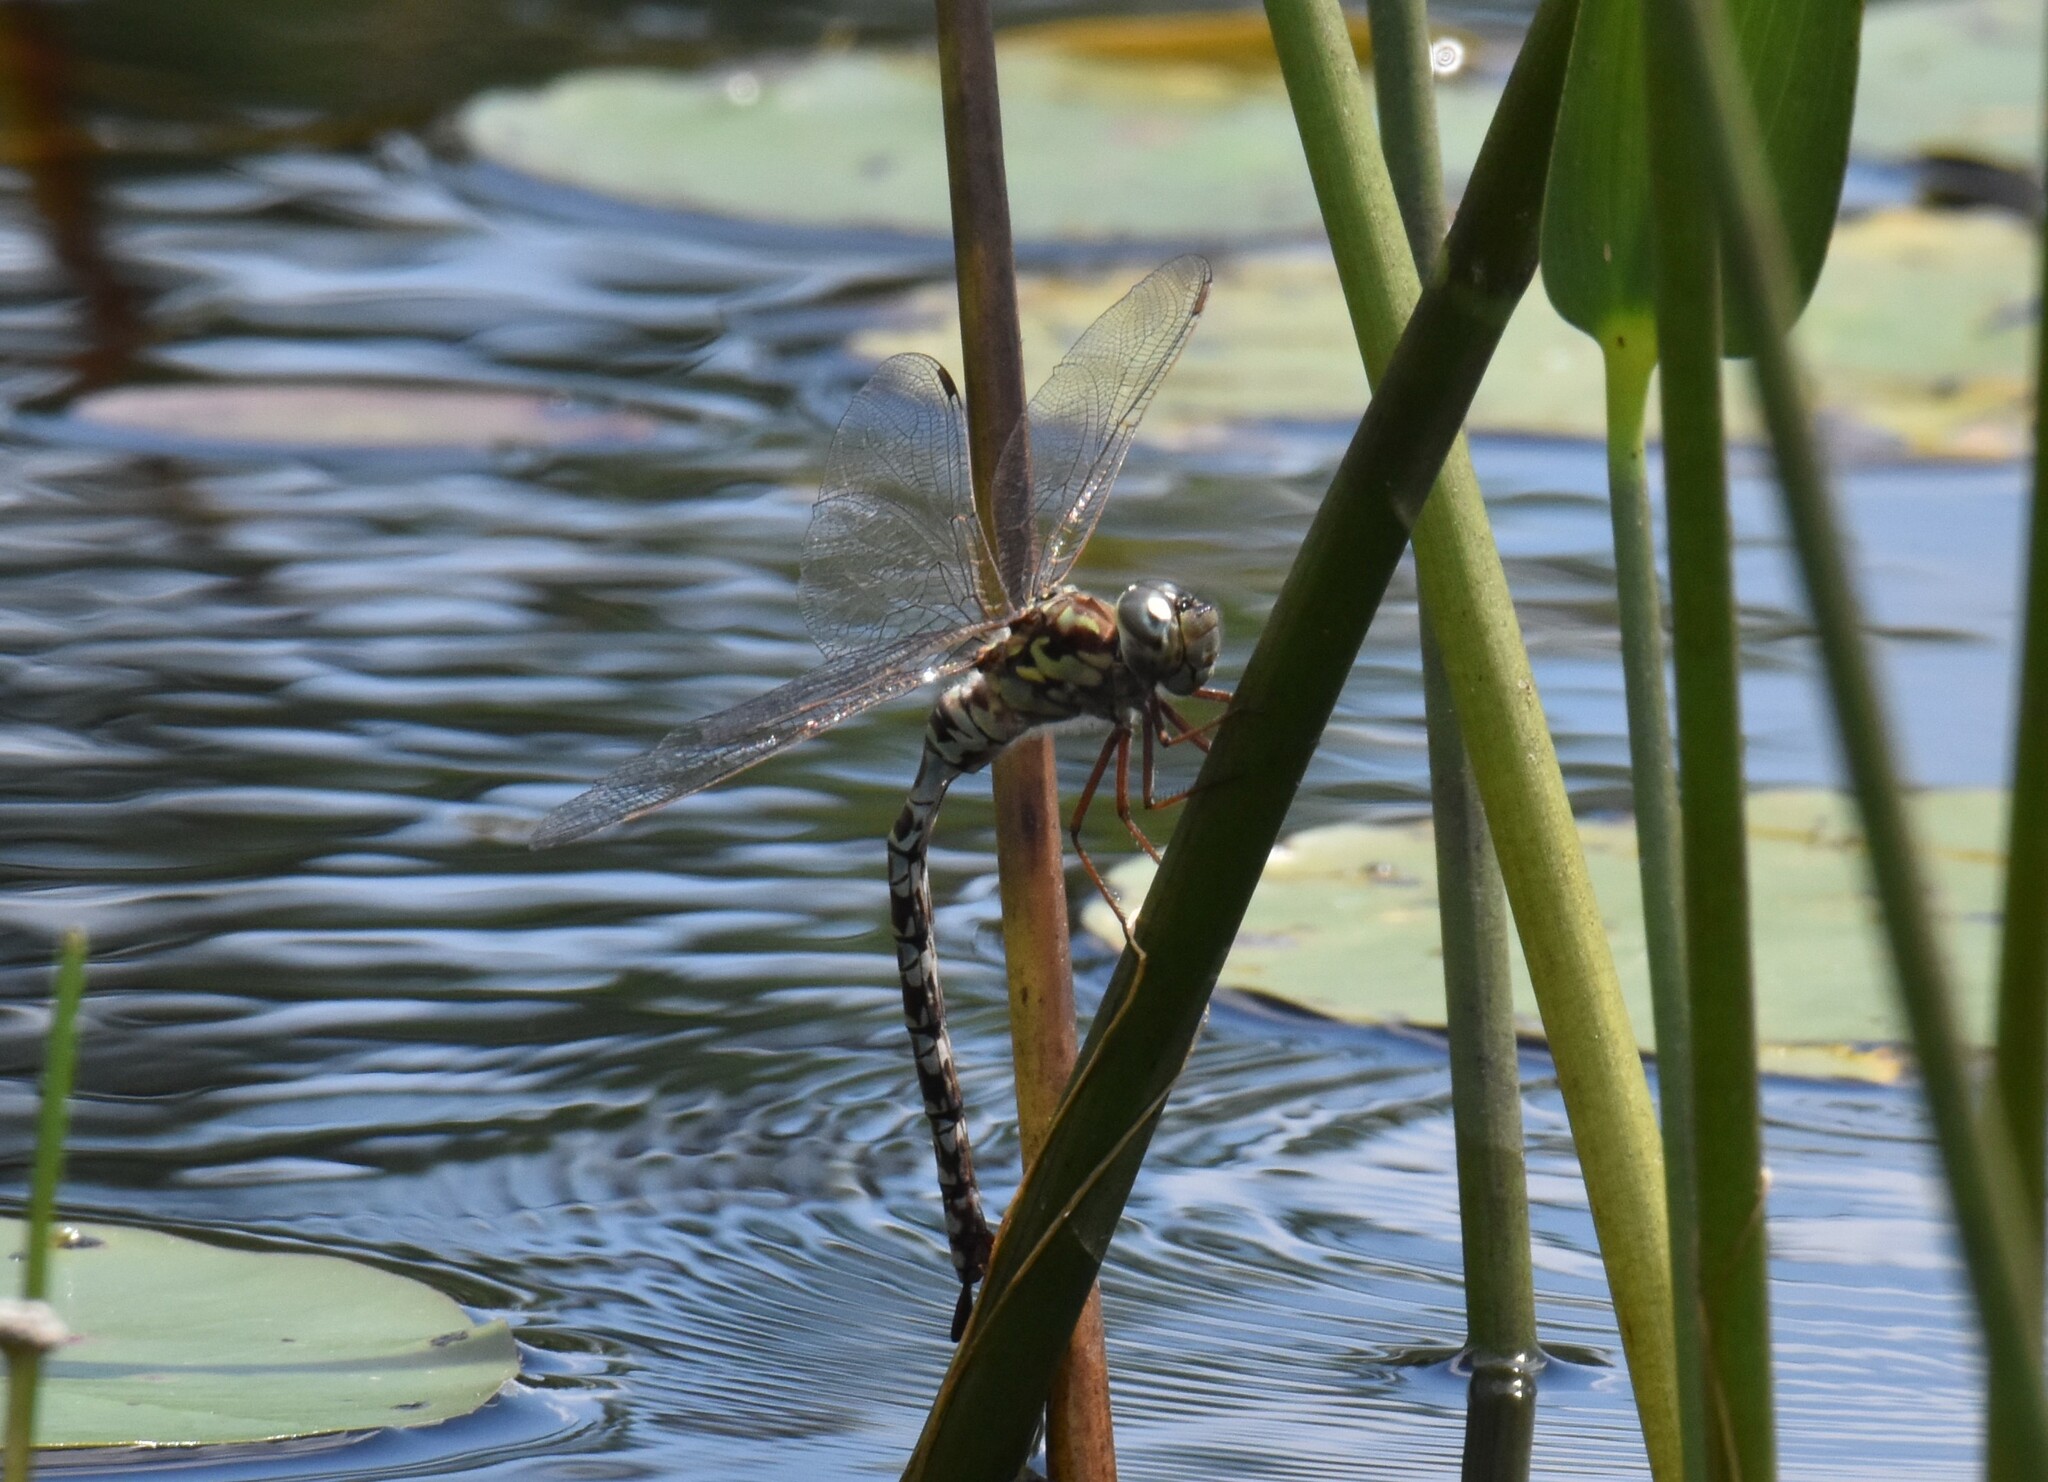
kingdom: Animalia
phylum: Arthropoda
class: Insecta
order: Odonata
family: Aeshnidae
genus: Aeshna
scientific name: Aeshna clepsydra
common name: Mottled darner
